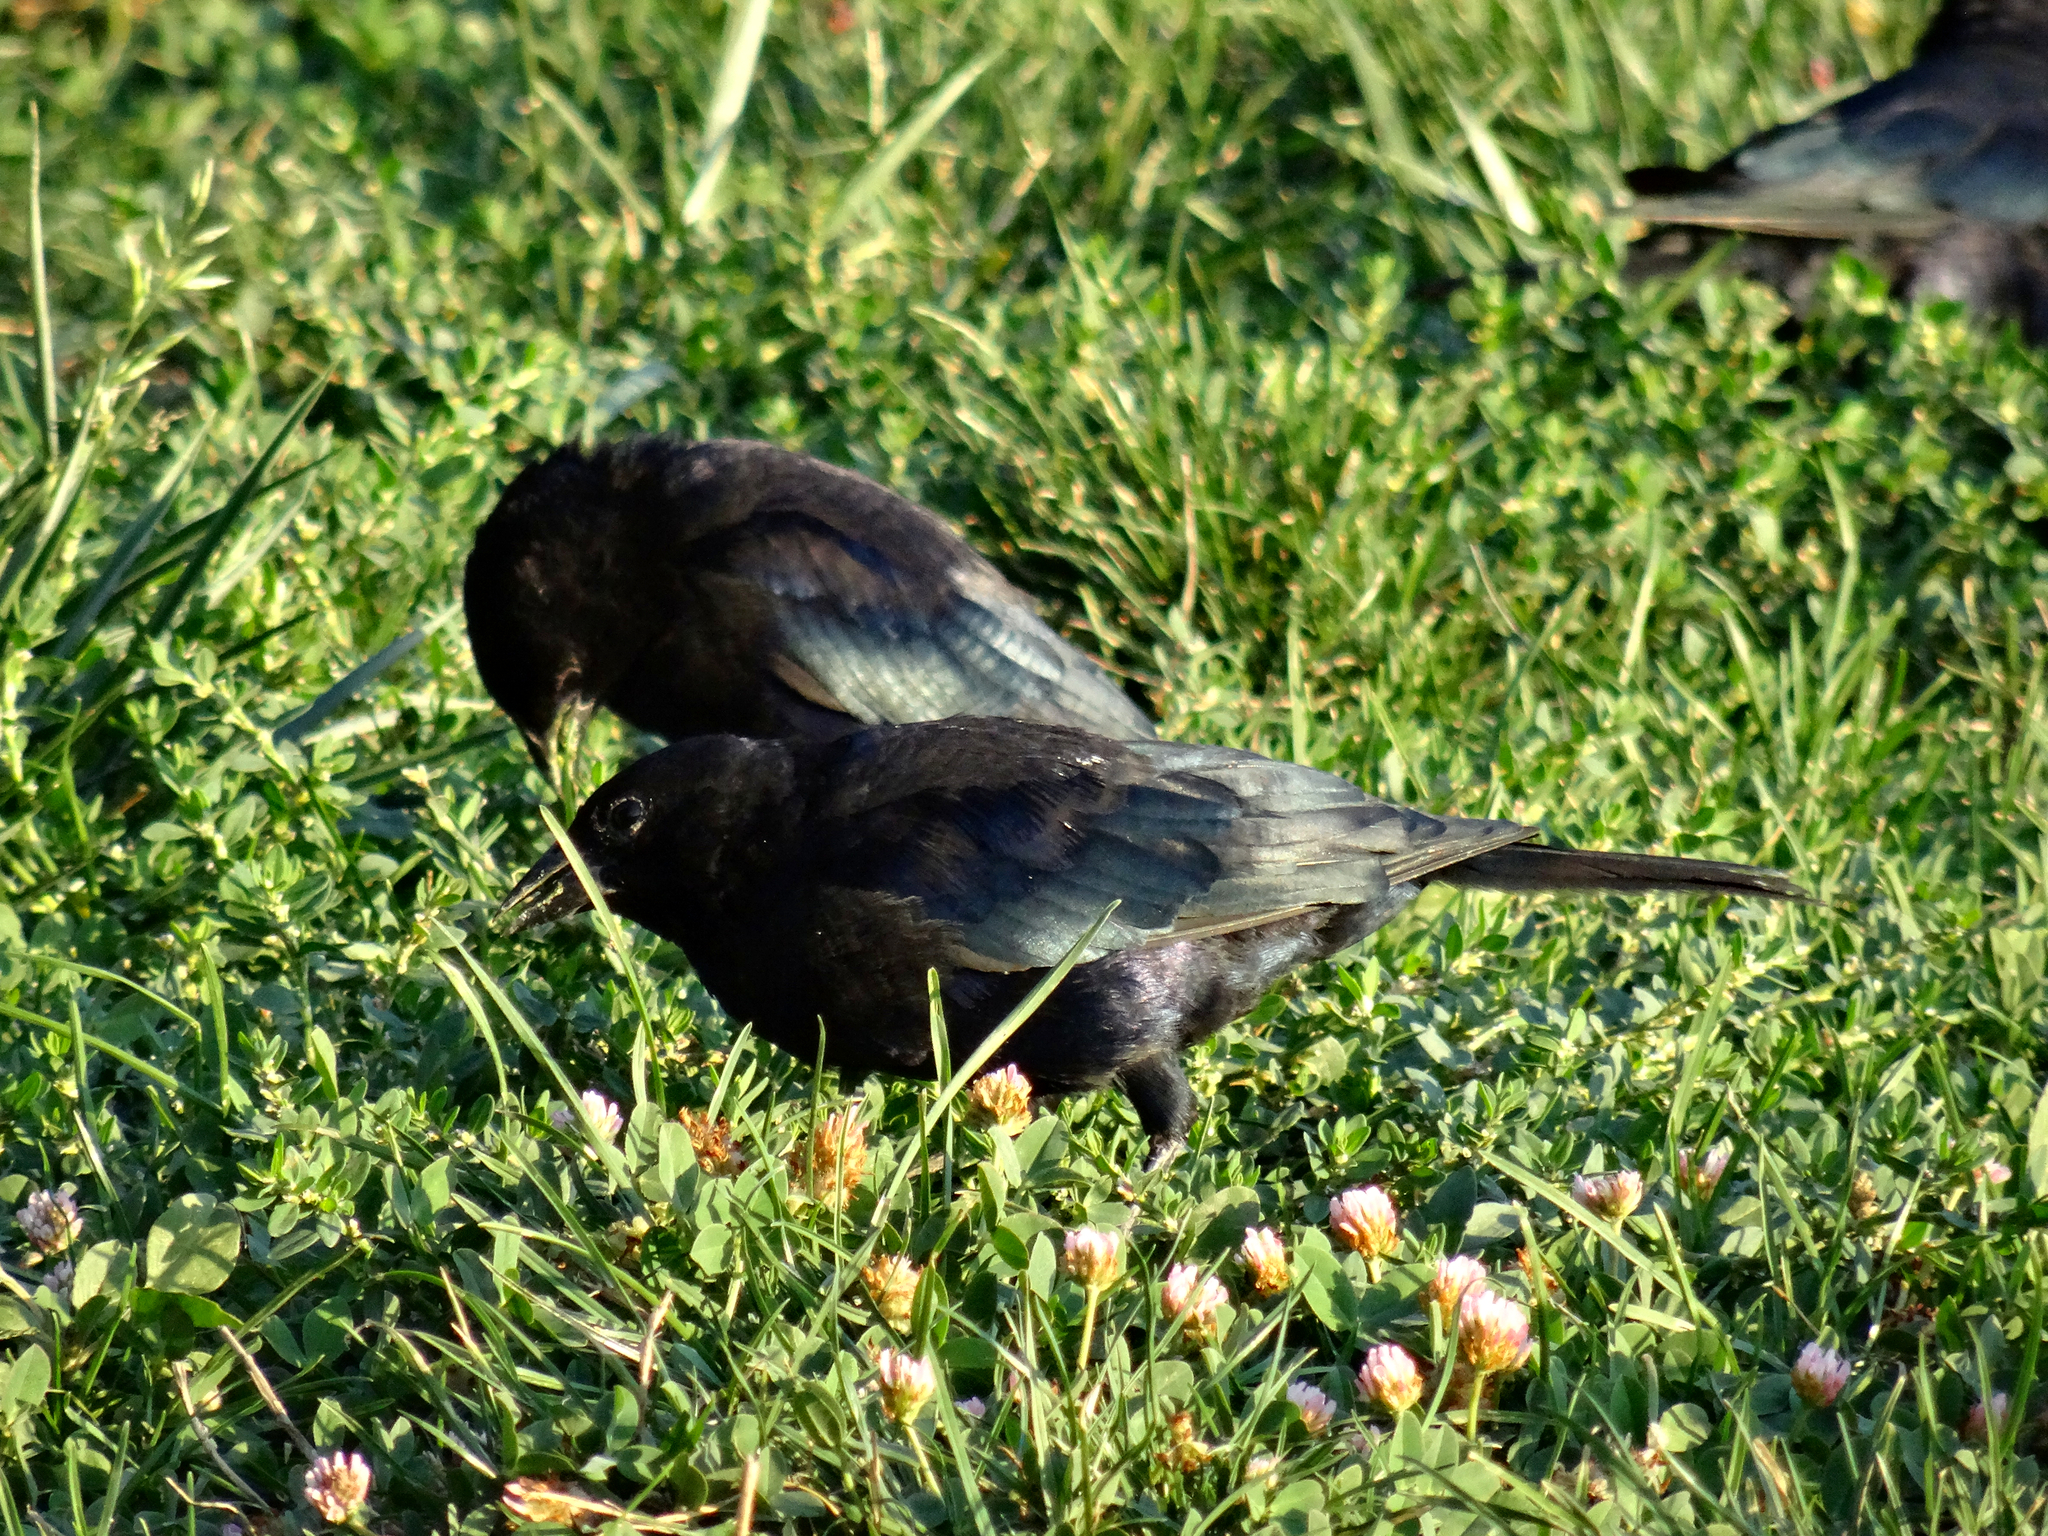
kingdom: Animalia
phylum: Chordata
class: Aves
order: Passeriformes
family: Icteridae
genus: Molothrus
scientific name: Molothrus bonariensis
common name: Shiny cowbird
